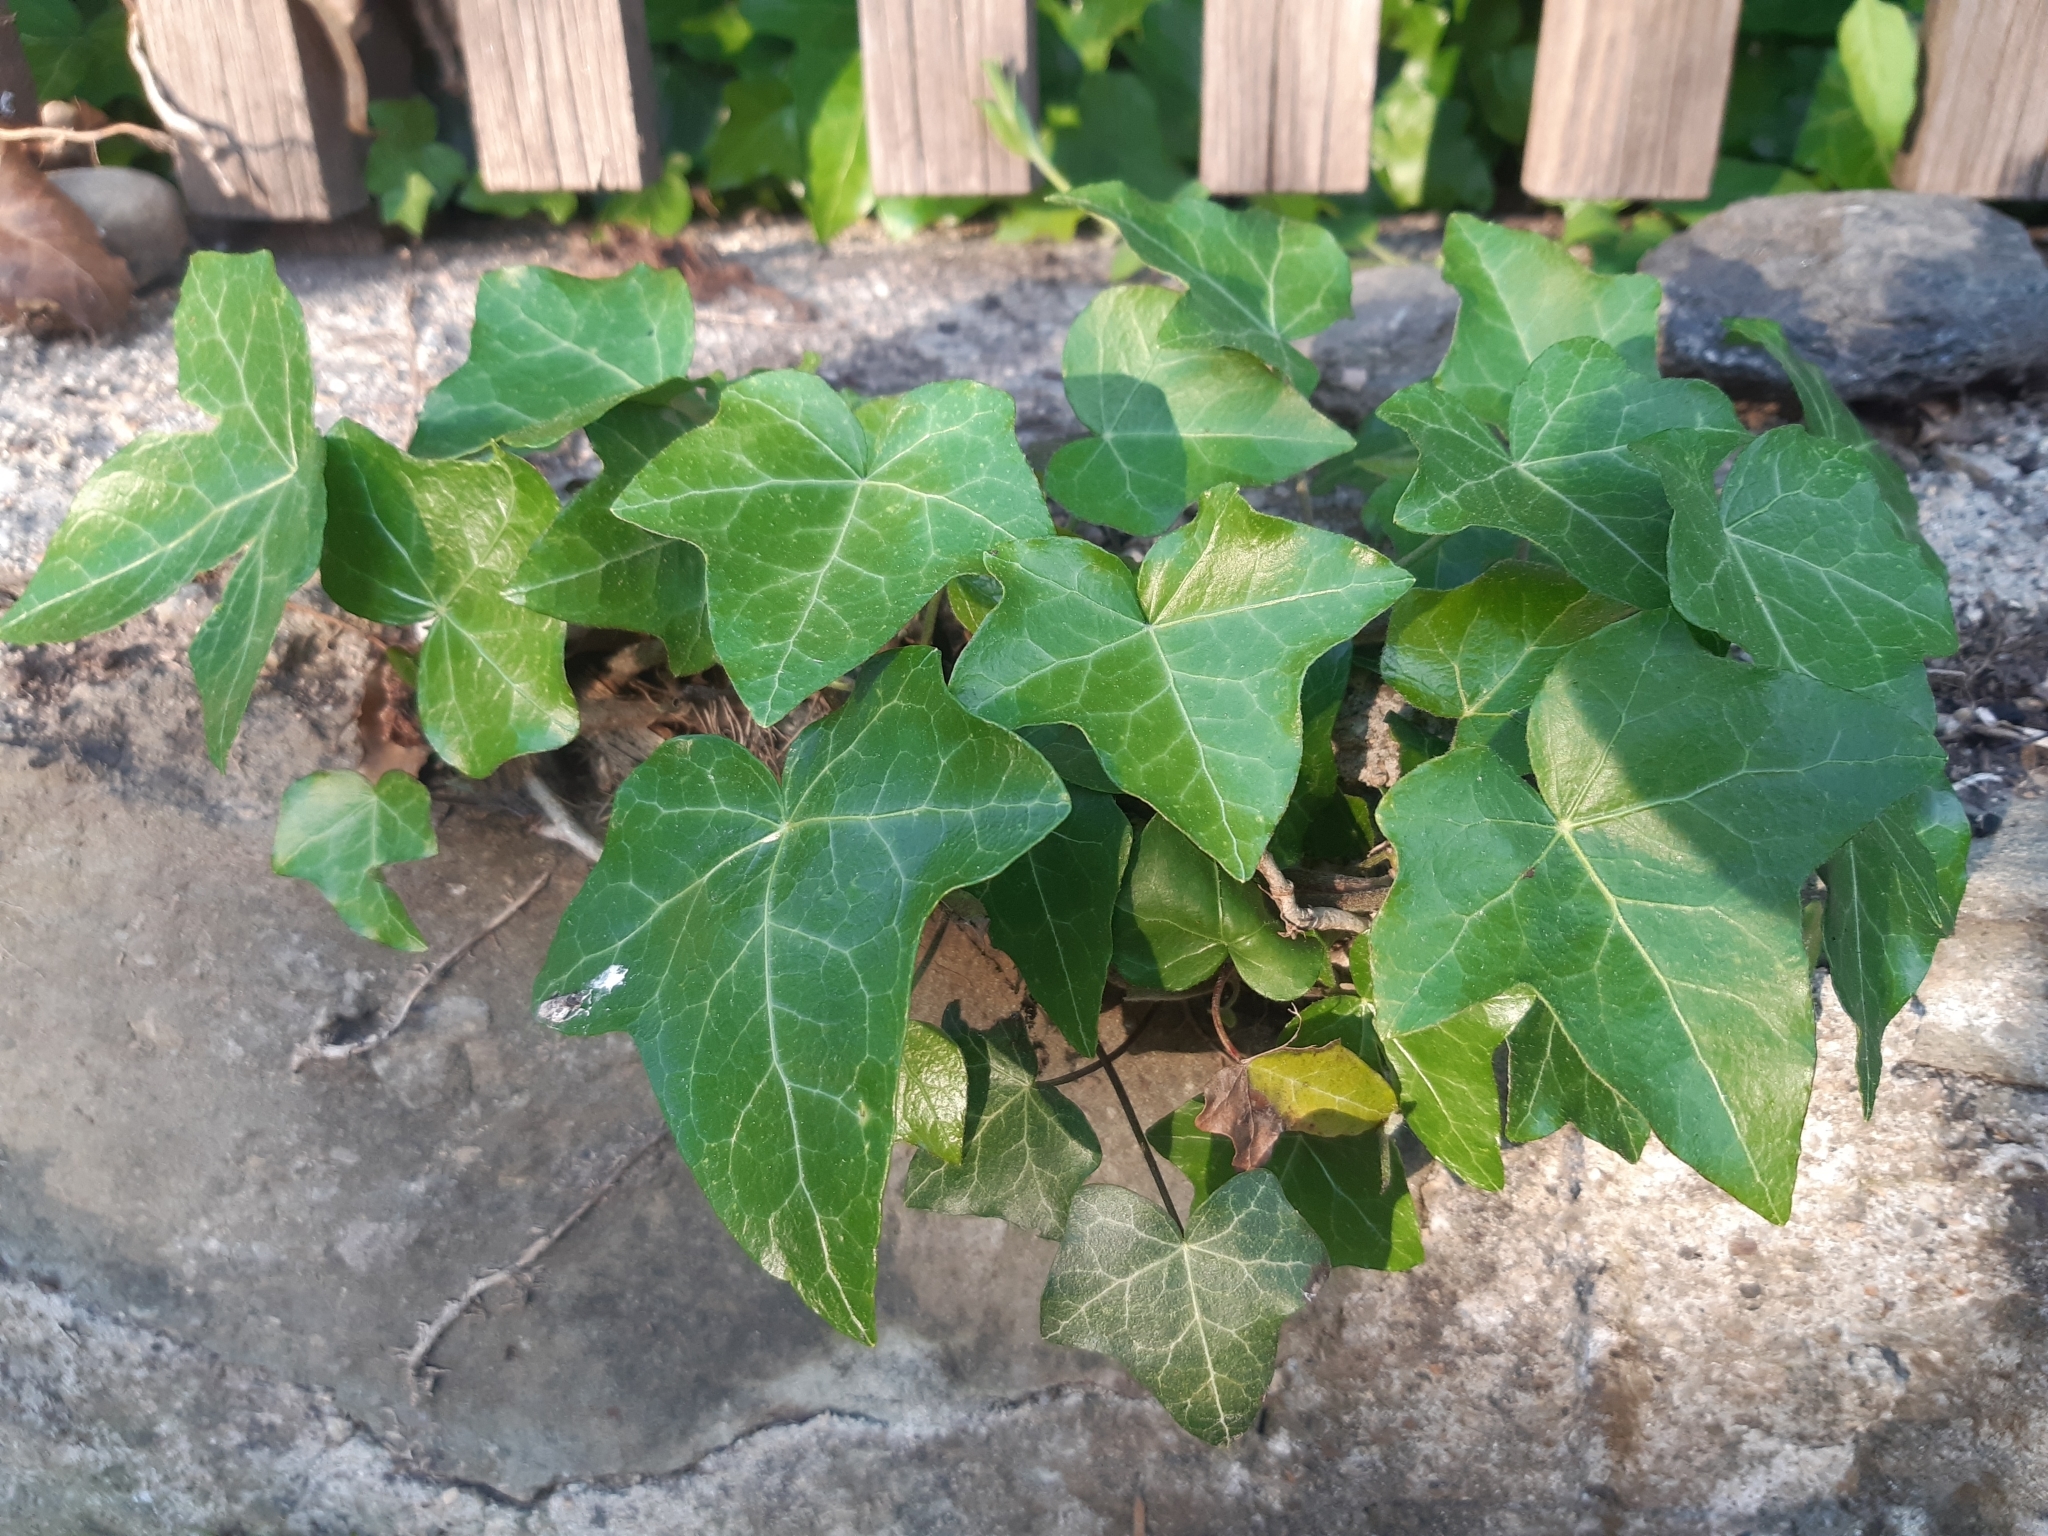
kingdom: Plantae
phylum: Tracheophyta
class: Magnoliopsida
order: Apiales
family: Araliaceae
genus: Hedera
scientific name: Hedera helix
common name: Ivy
